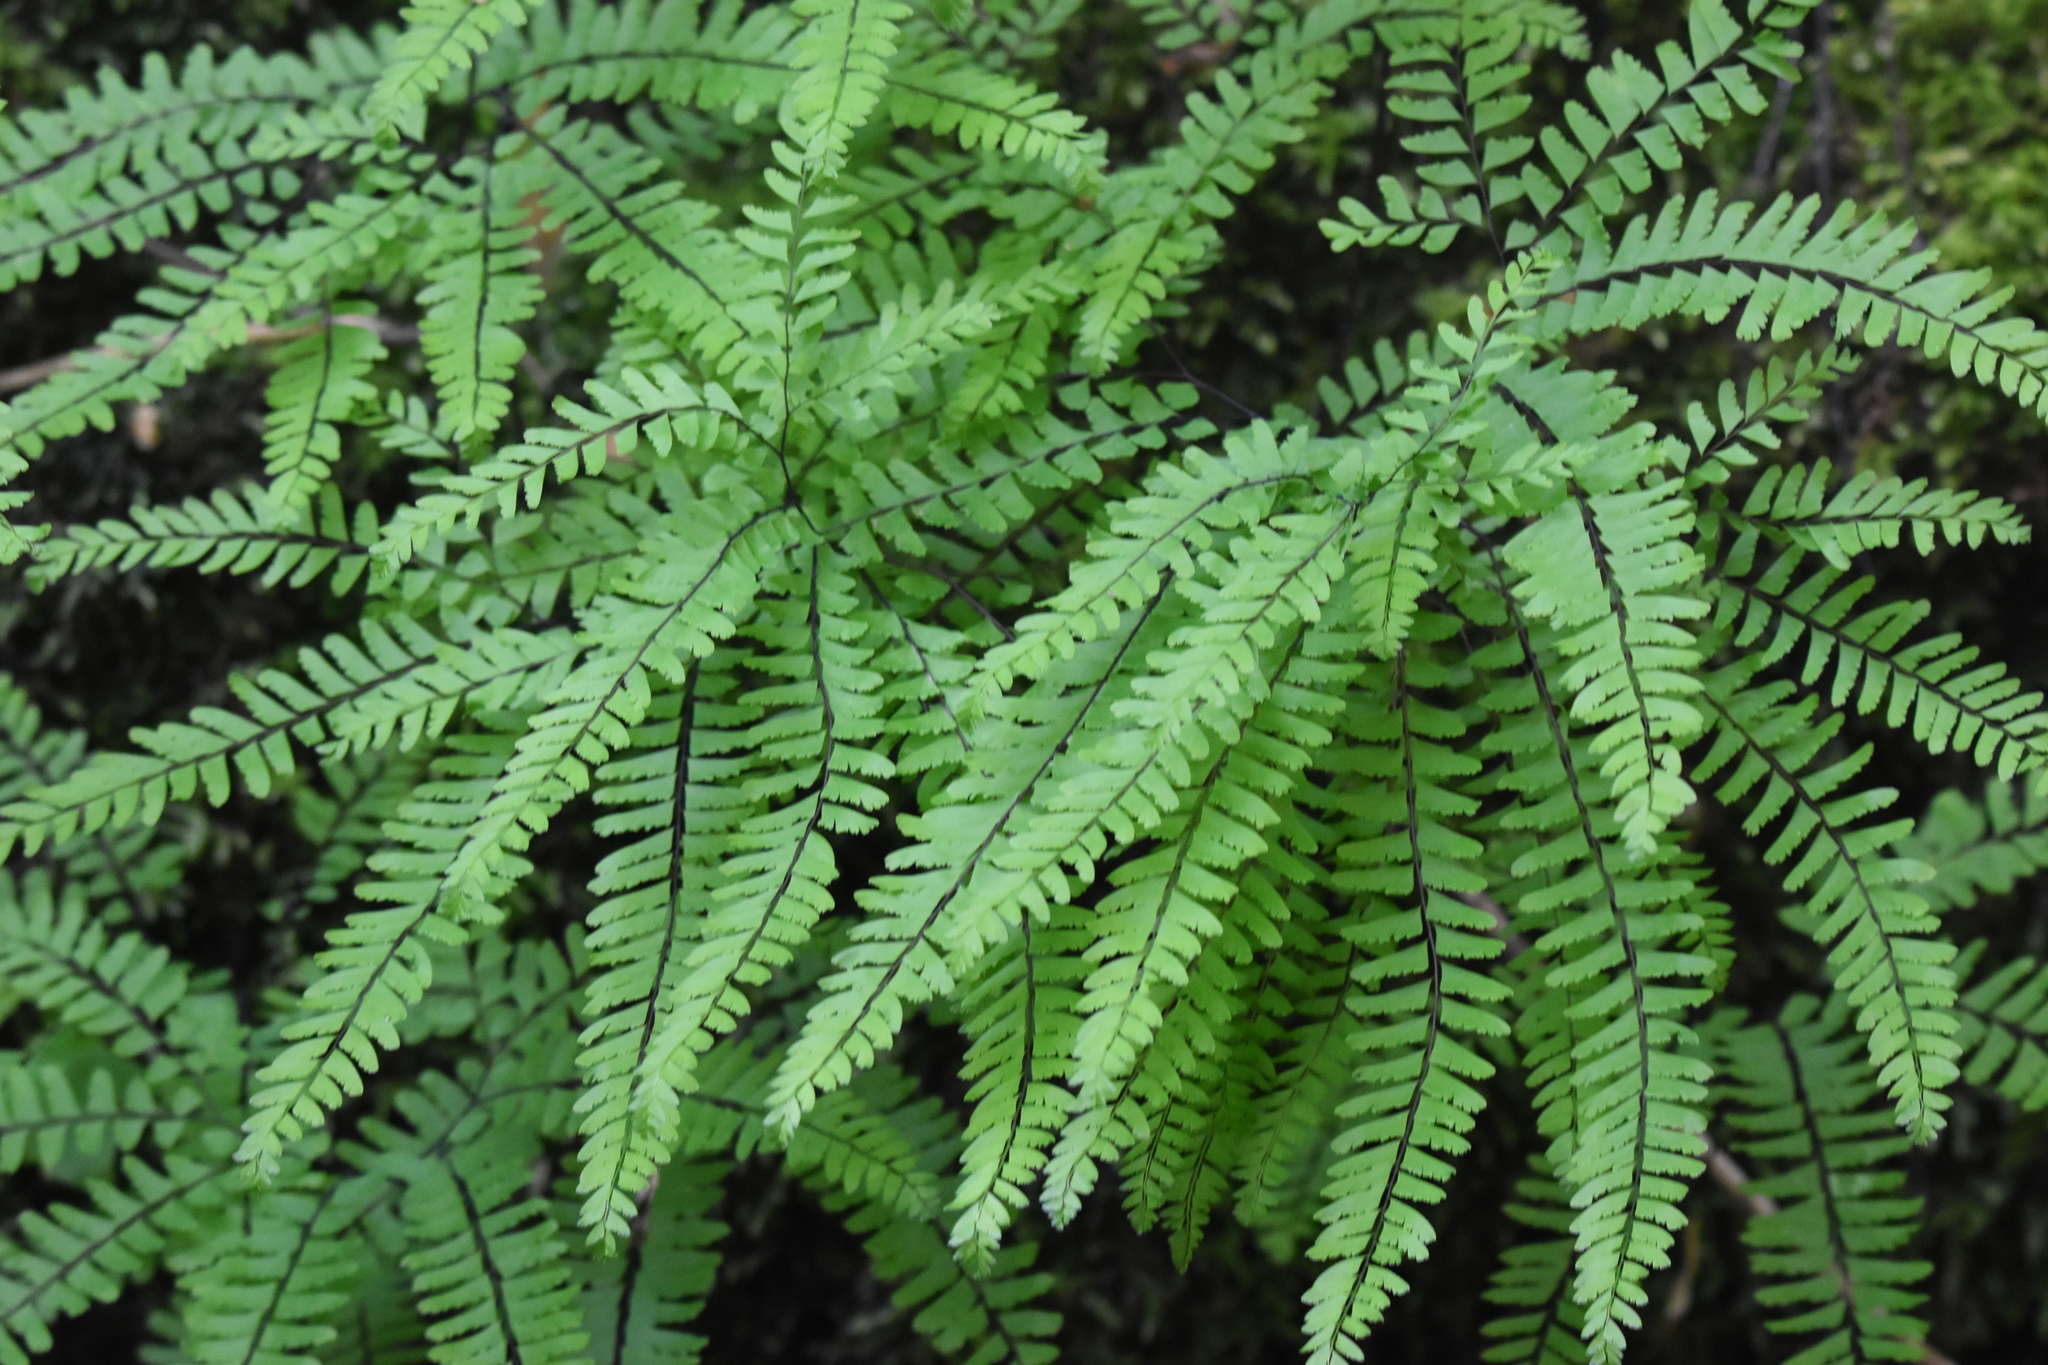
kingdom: Plantae
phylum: Tracheophyta
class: Polypodiopsida
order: Polypodiales
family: Pteridaceae
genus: Adiantum
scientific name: Adiantum aleuticum
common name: Aleutian maidenhair fern
